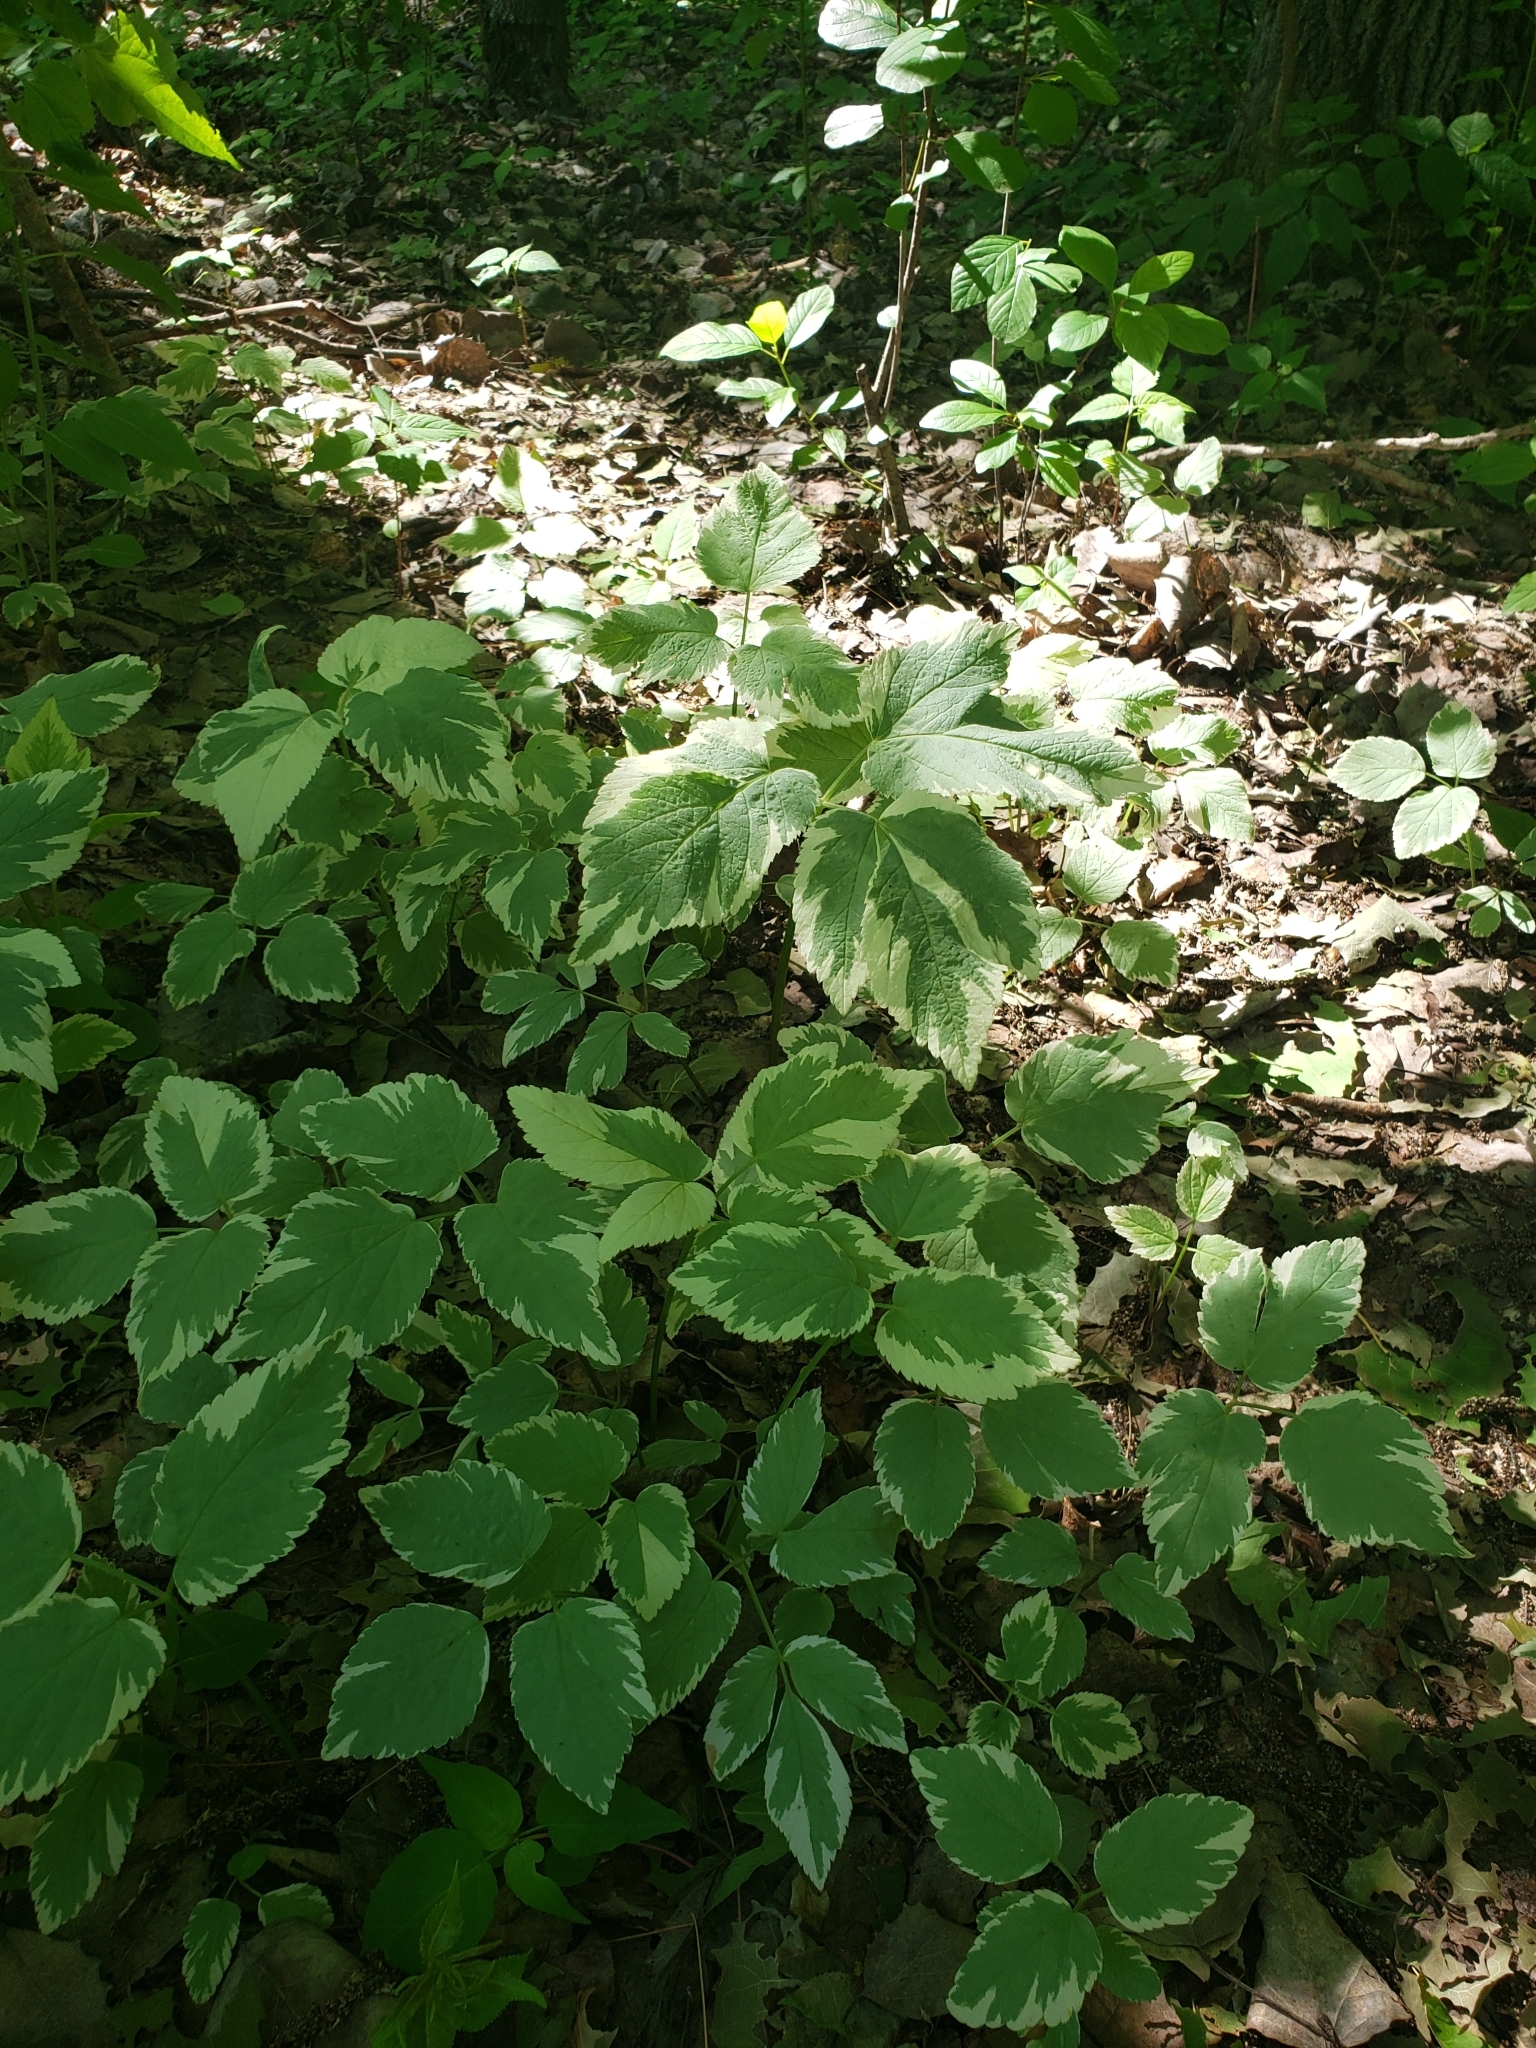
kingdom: Plantae
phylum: Tracheophyta
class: Magnoliopsida
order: Apiales
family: Apiaceae
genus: Aegopodium
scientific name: Aegopodium podagraria
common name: Ground-elder
